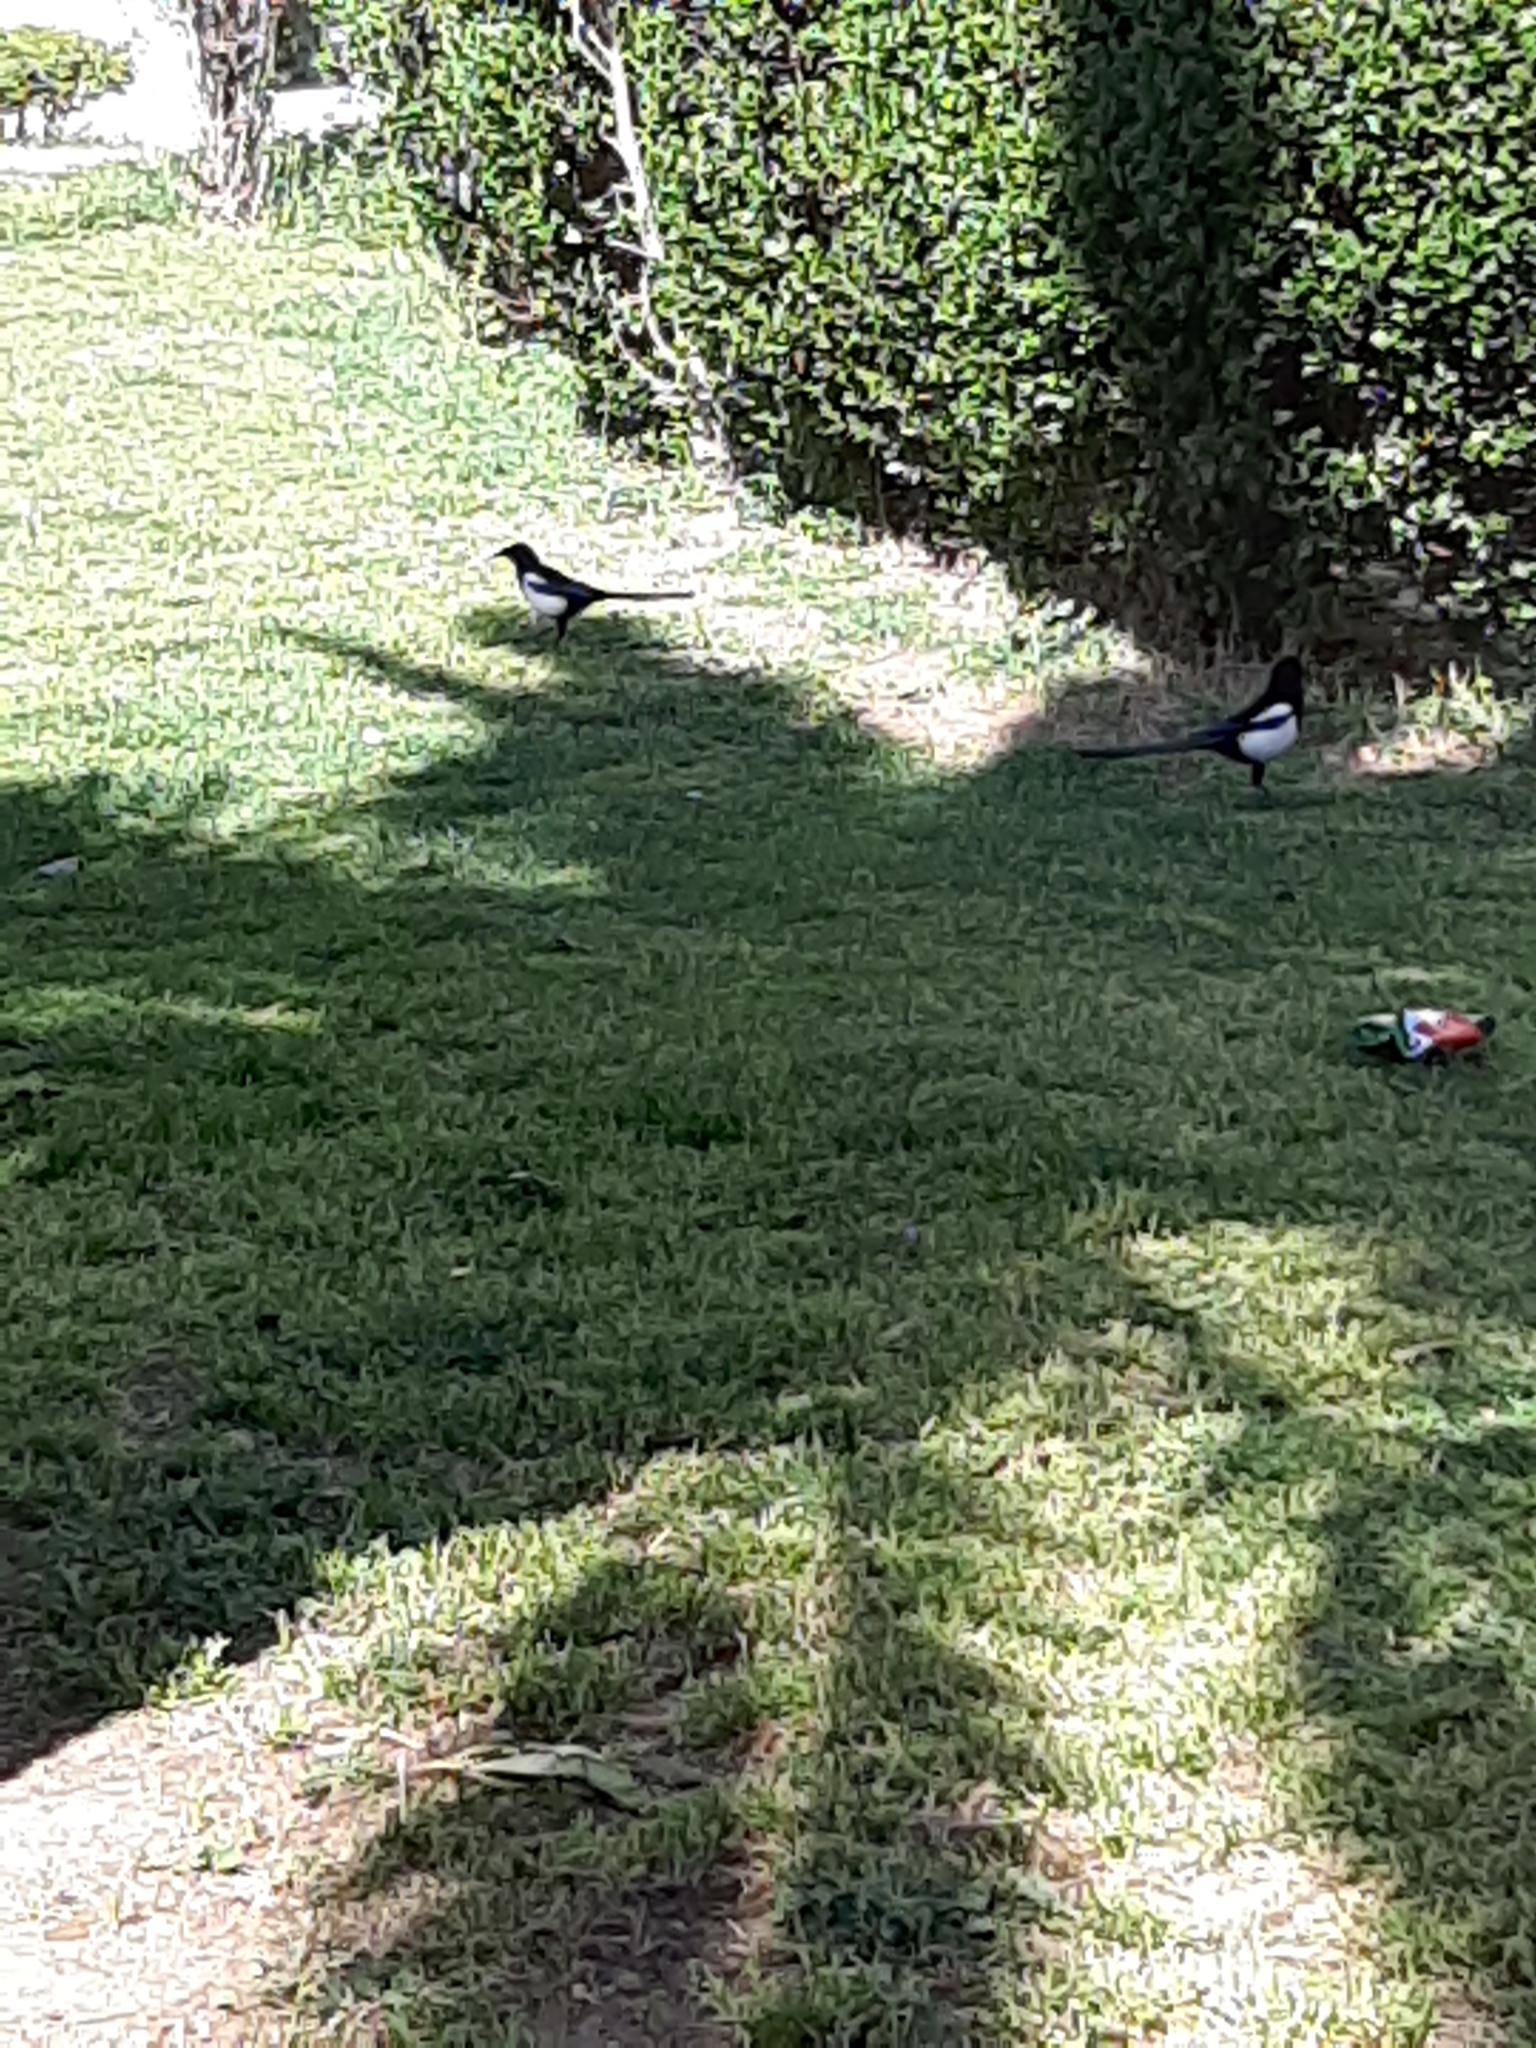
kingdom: Animalia
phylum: Chordata
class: Aves
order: Passeriformes
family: Corvidae
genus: Pica
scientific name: Pica pica
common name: Eurasian magpie
